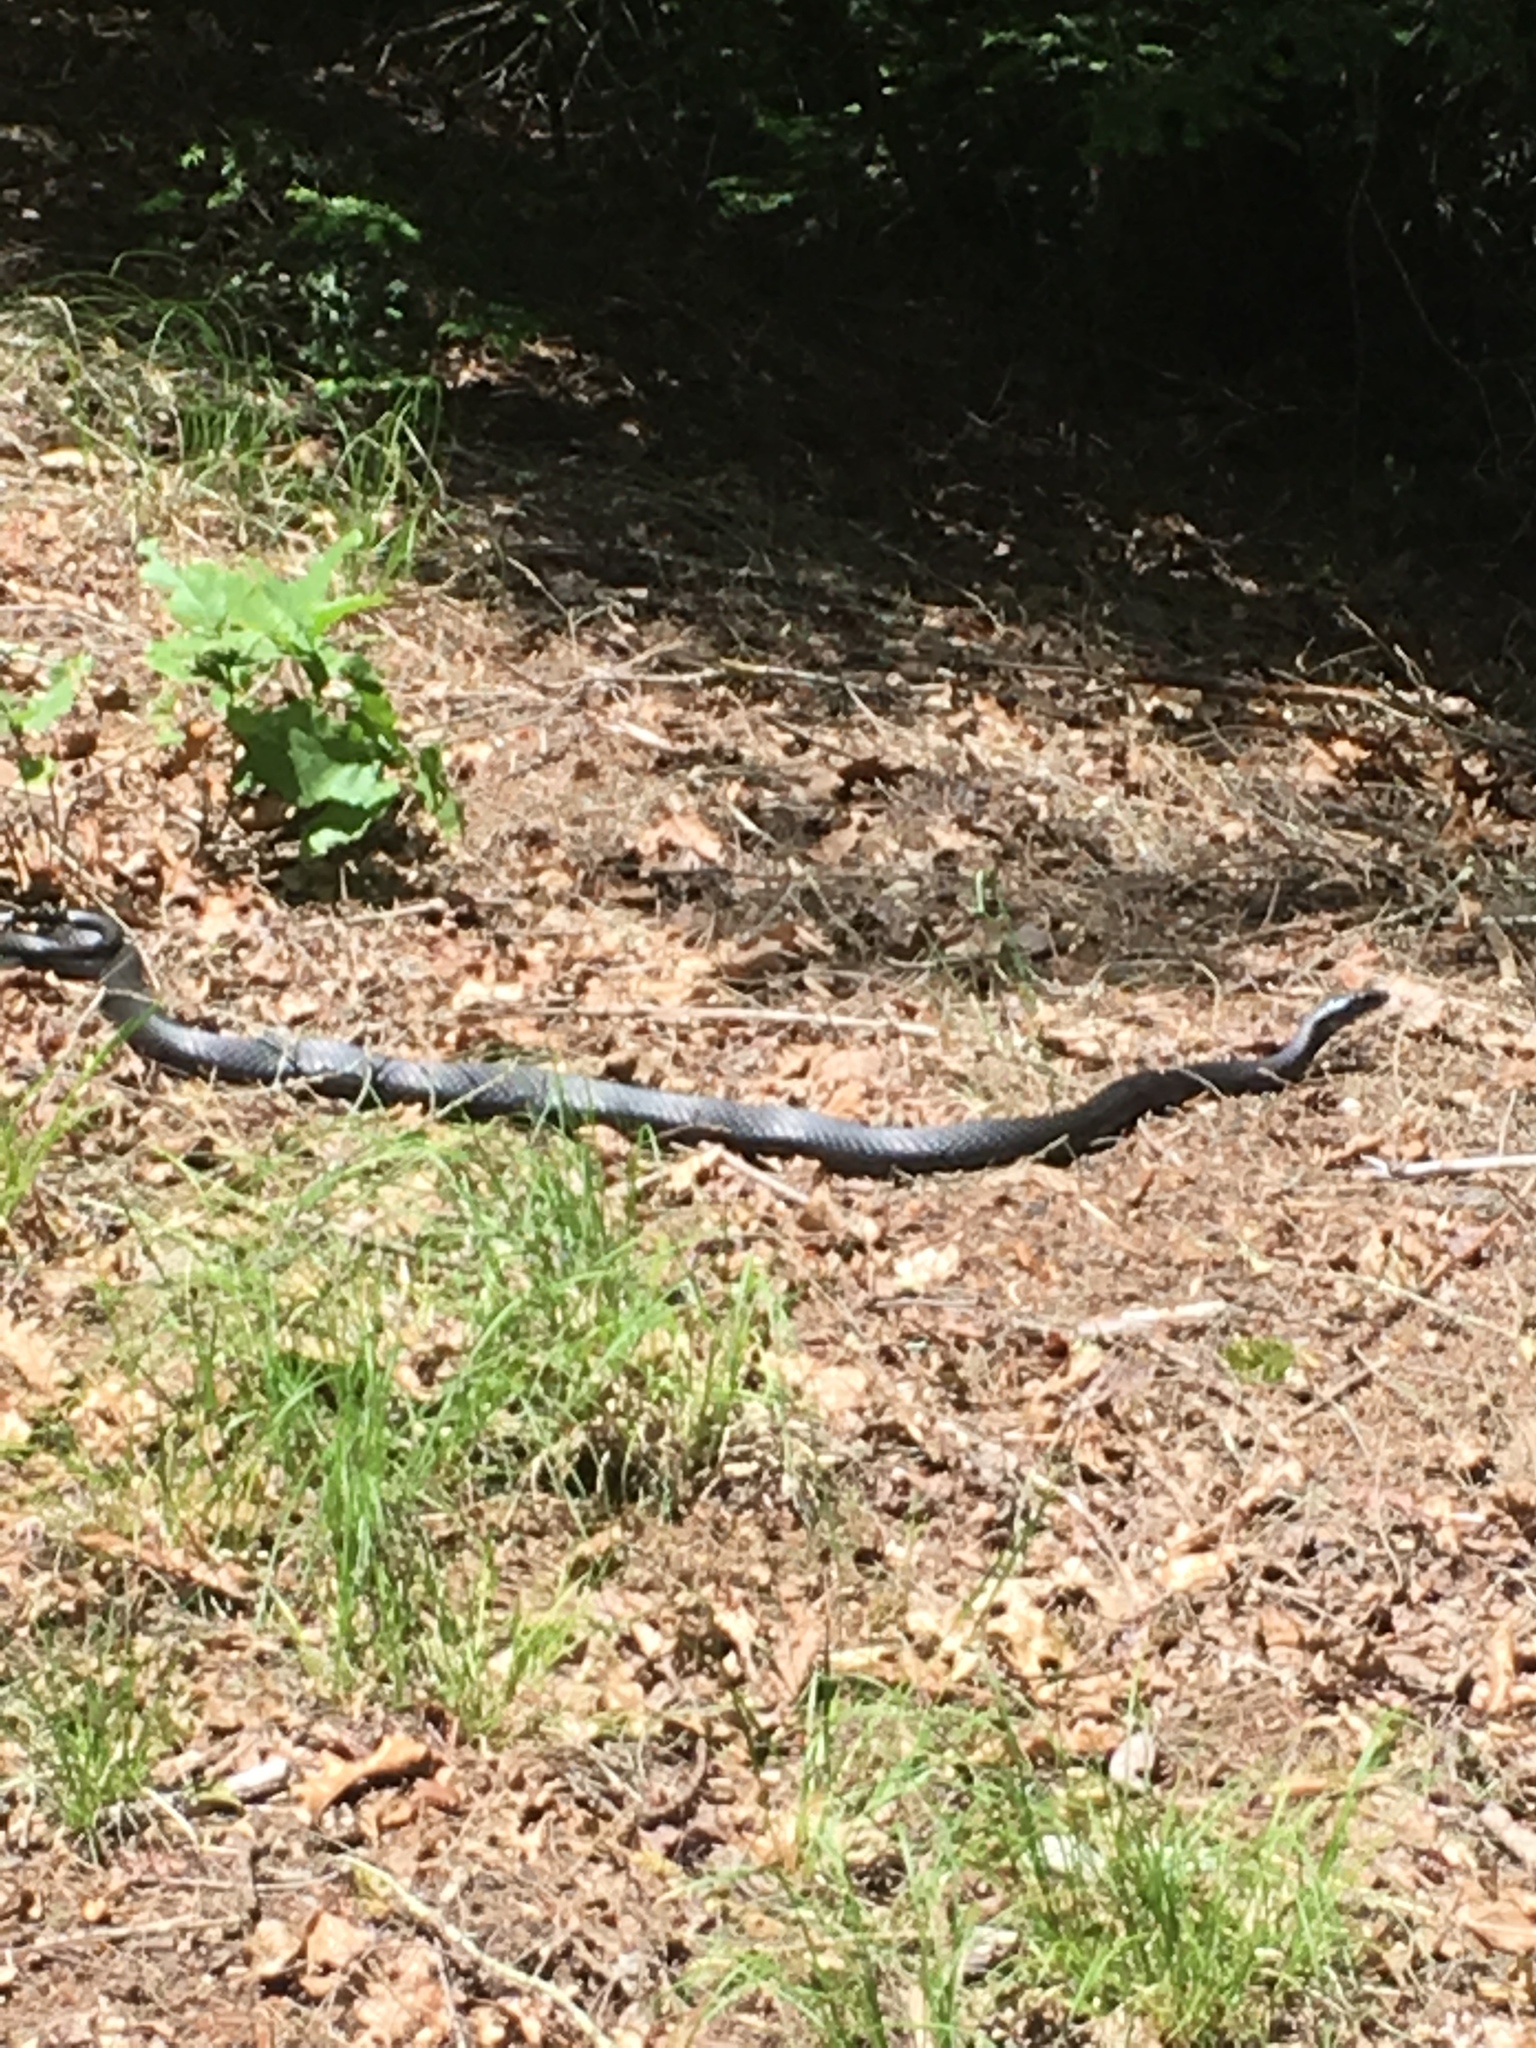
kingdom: Animalia
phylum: Chordata
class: Squamata
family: Colubridae
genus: Coluber
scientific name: Coluber constrictor
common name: Eastern racer
